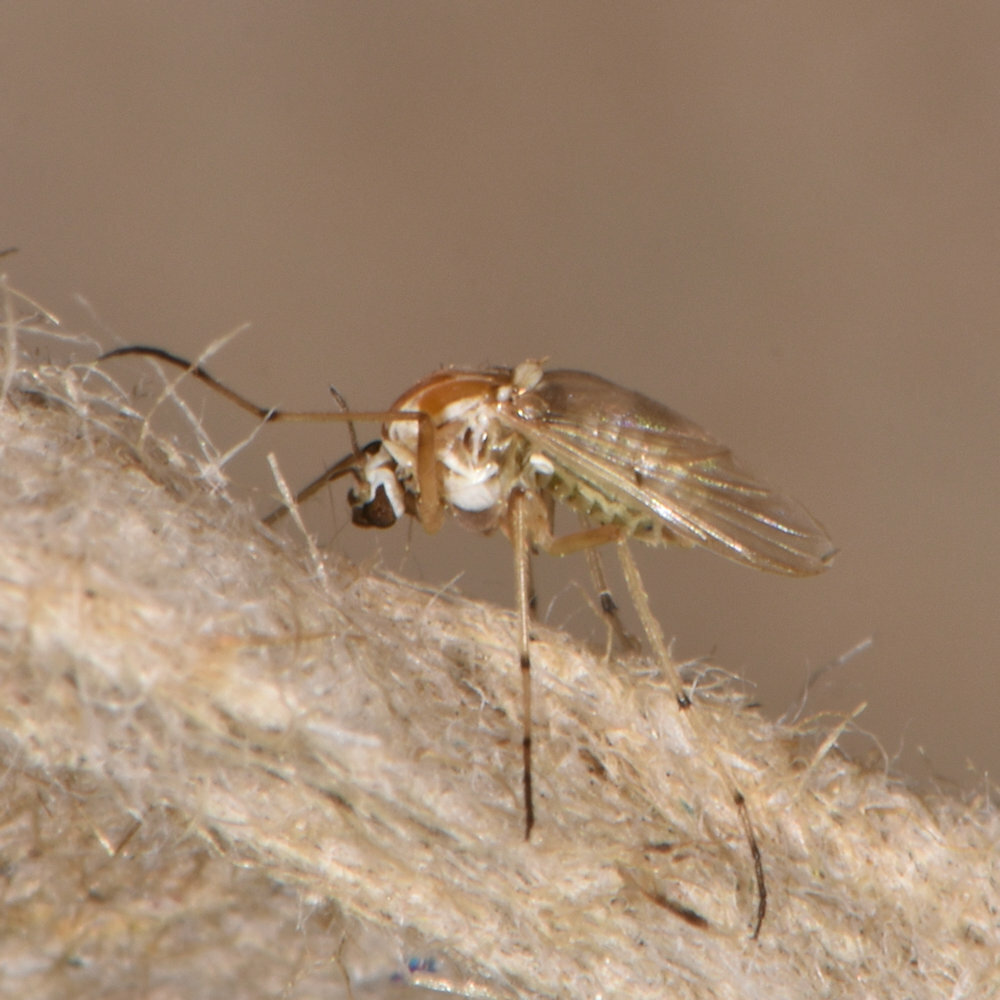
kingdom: Animalia
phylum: Arthropoda
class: Insecta
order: Diptera
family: Chironomidae
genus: Procladius
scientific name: Procladius bellus
